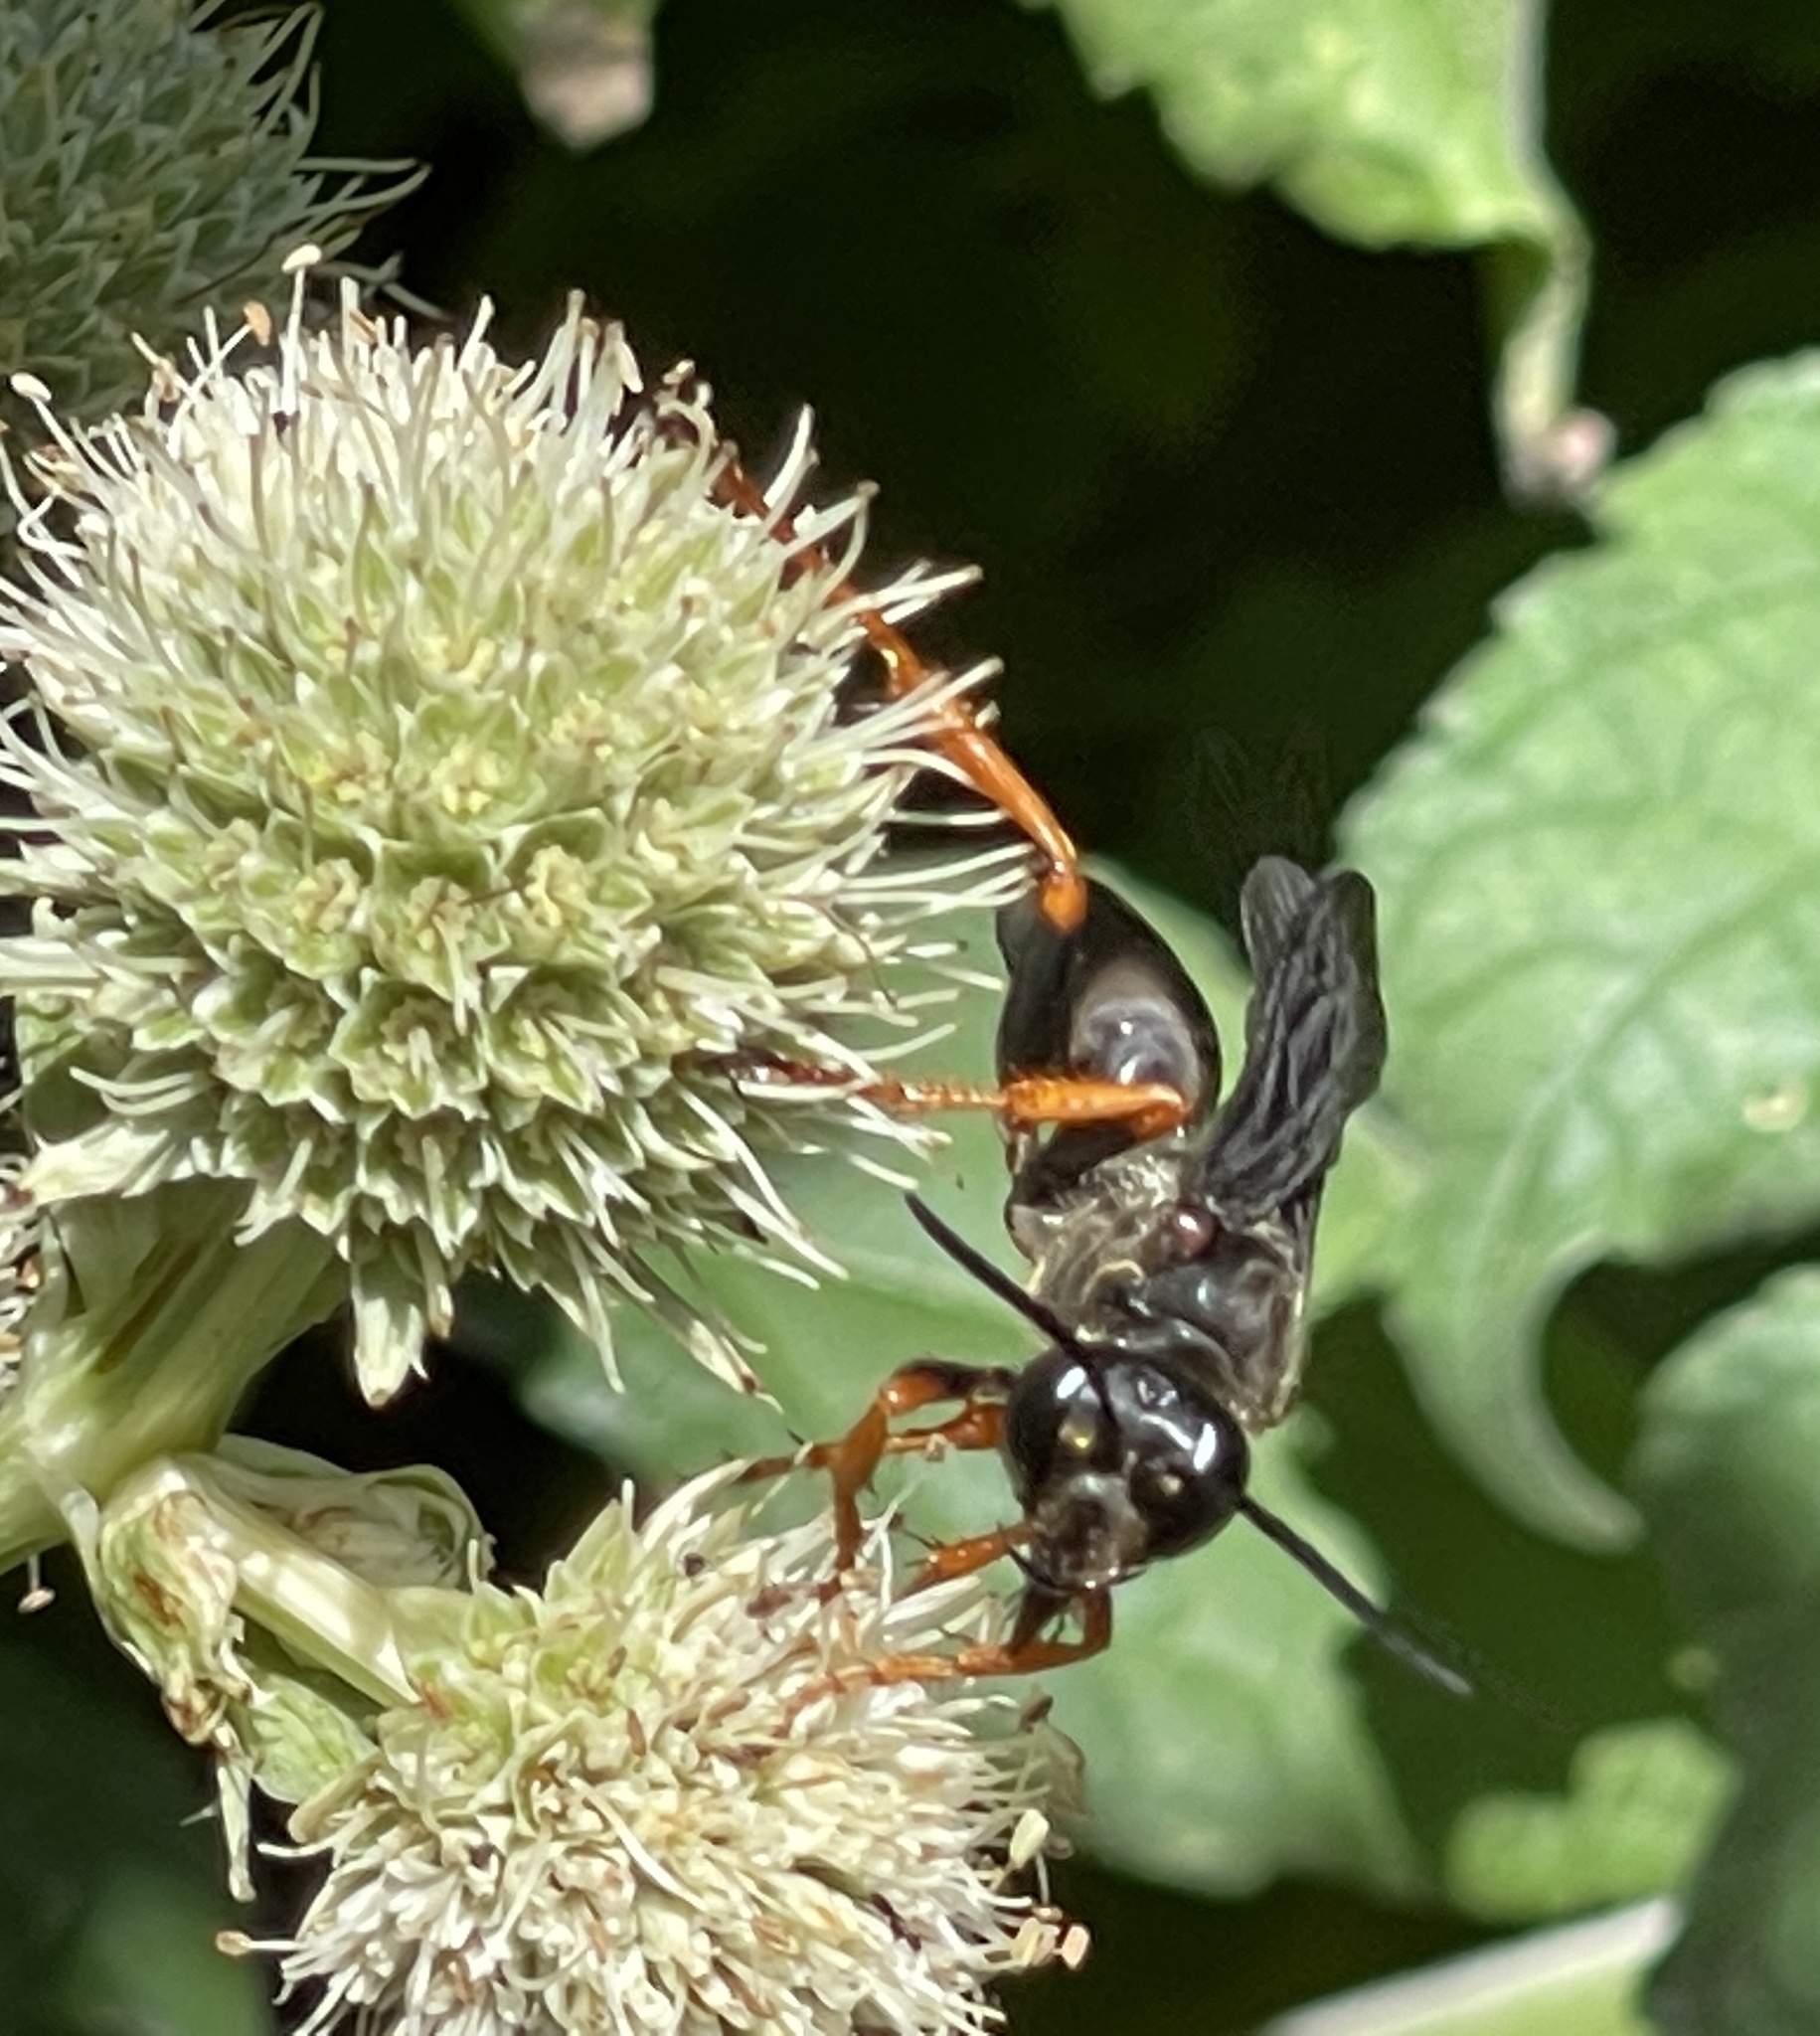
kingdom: Animalia
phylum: Arthropoda
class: Insecta
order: Hymenoptera
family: Sphecidae
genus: Sphex
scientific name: Sphex nudus
